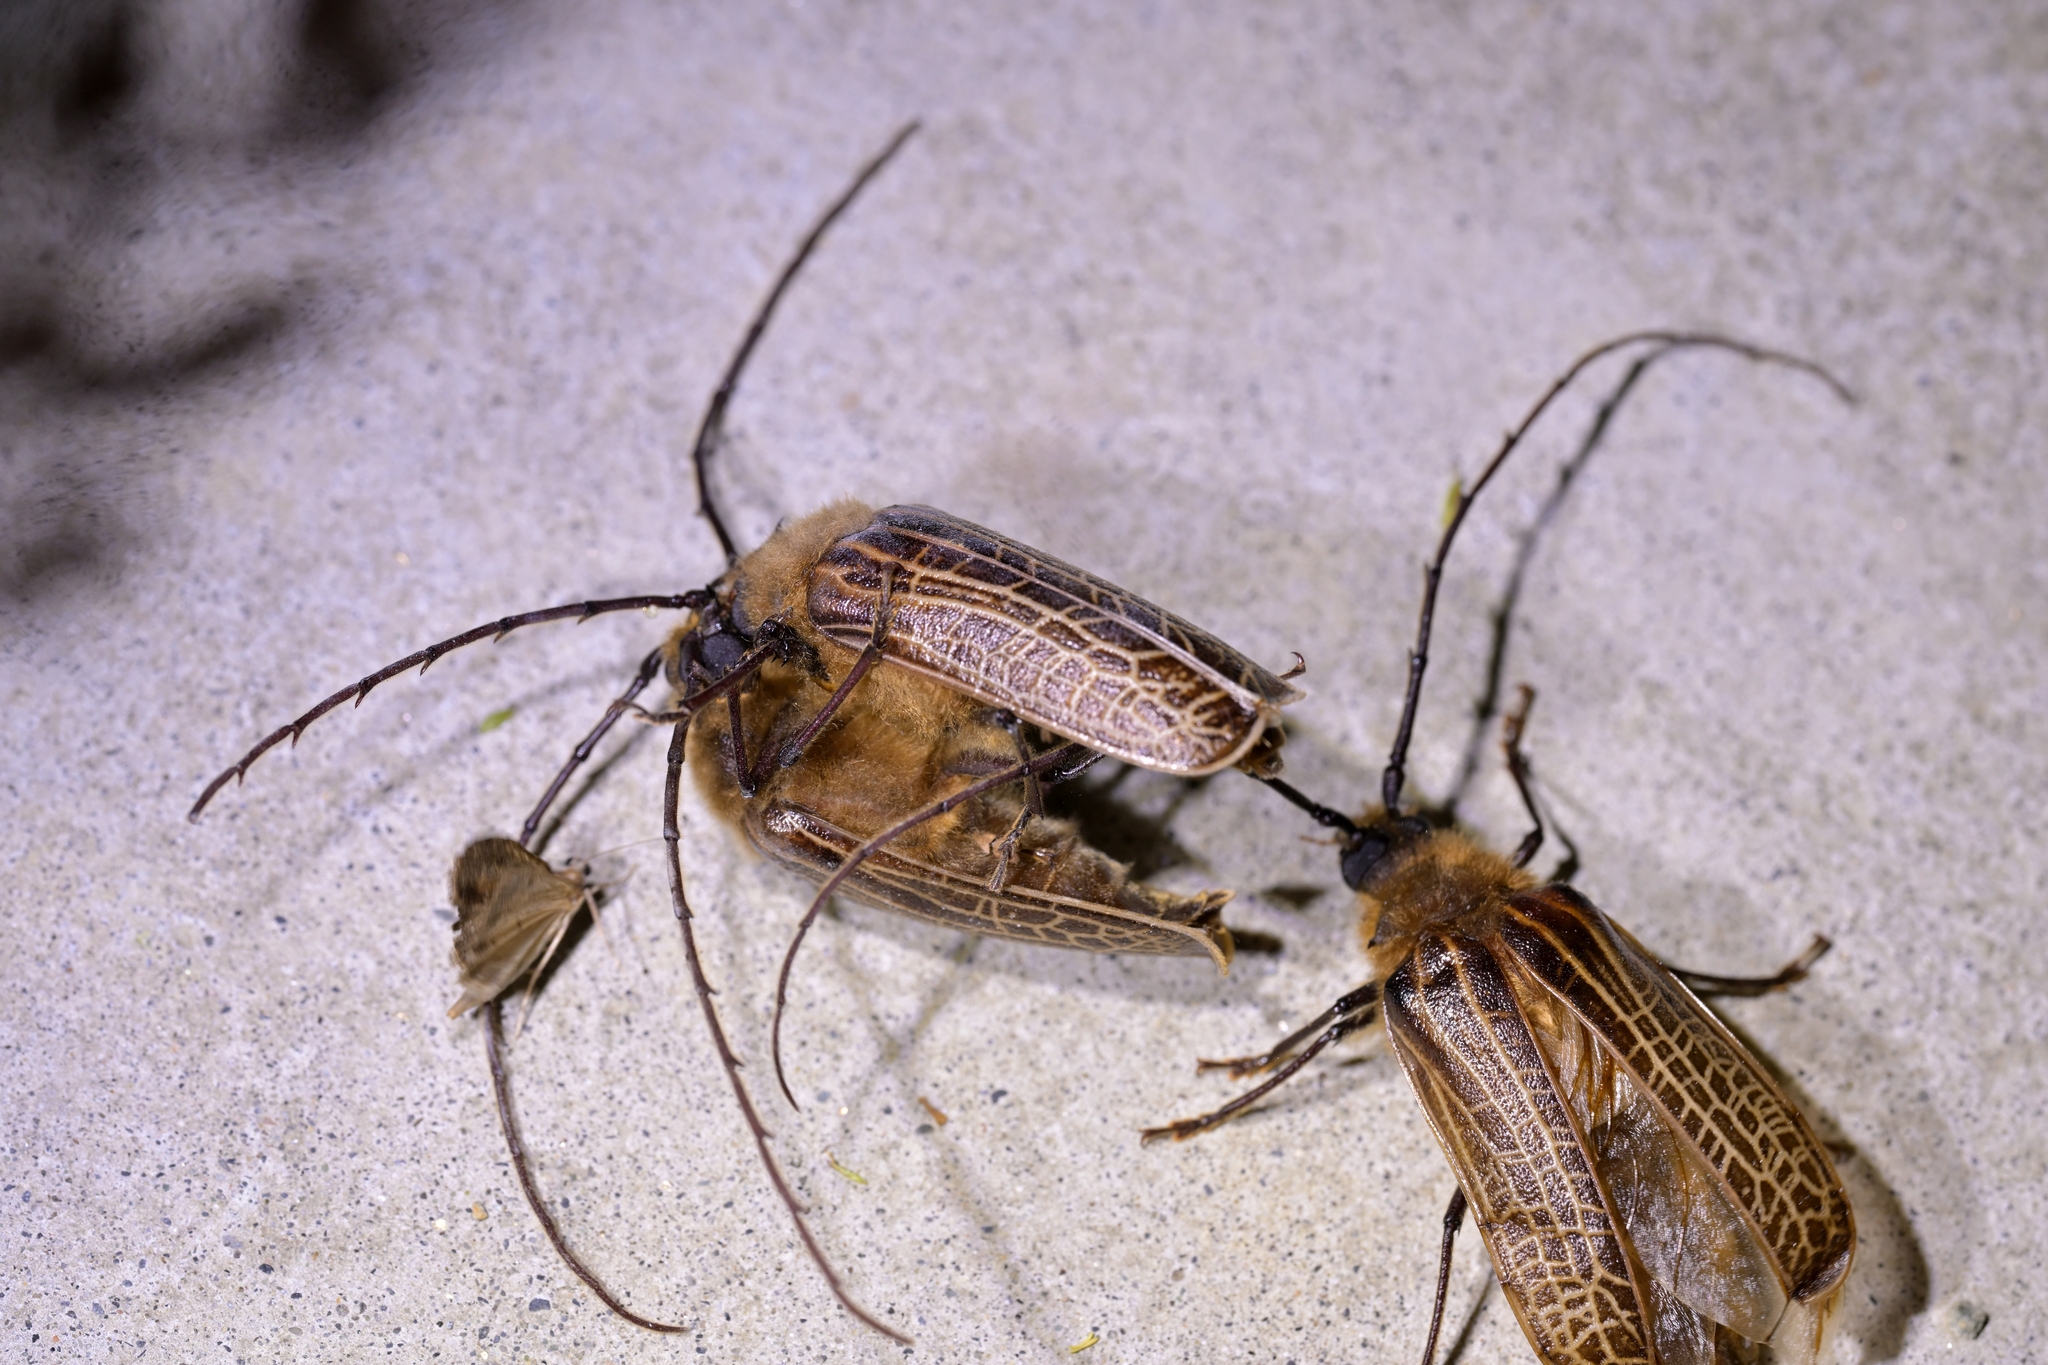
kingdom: Animalia
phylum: Arthropoda
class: Insecta
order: Coleoptera
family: Cerambycidae
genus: Prionoplus
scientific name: Prionoplus reticularis
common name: Huhu beetle
